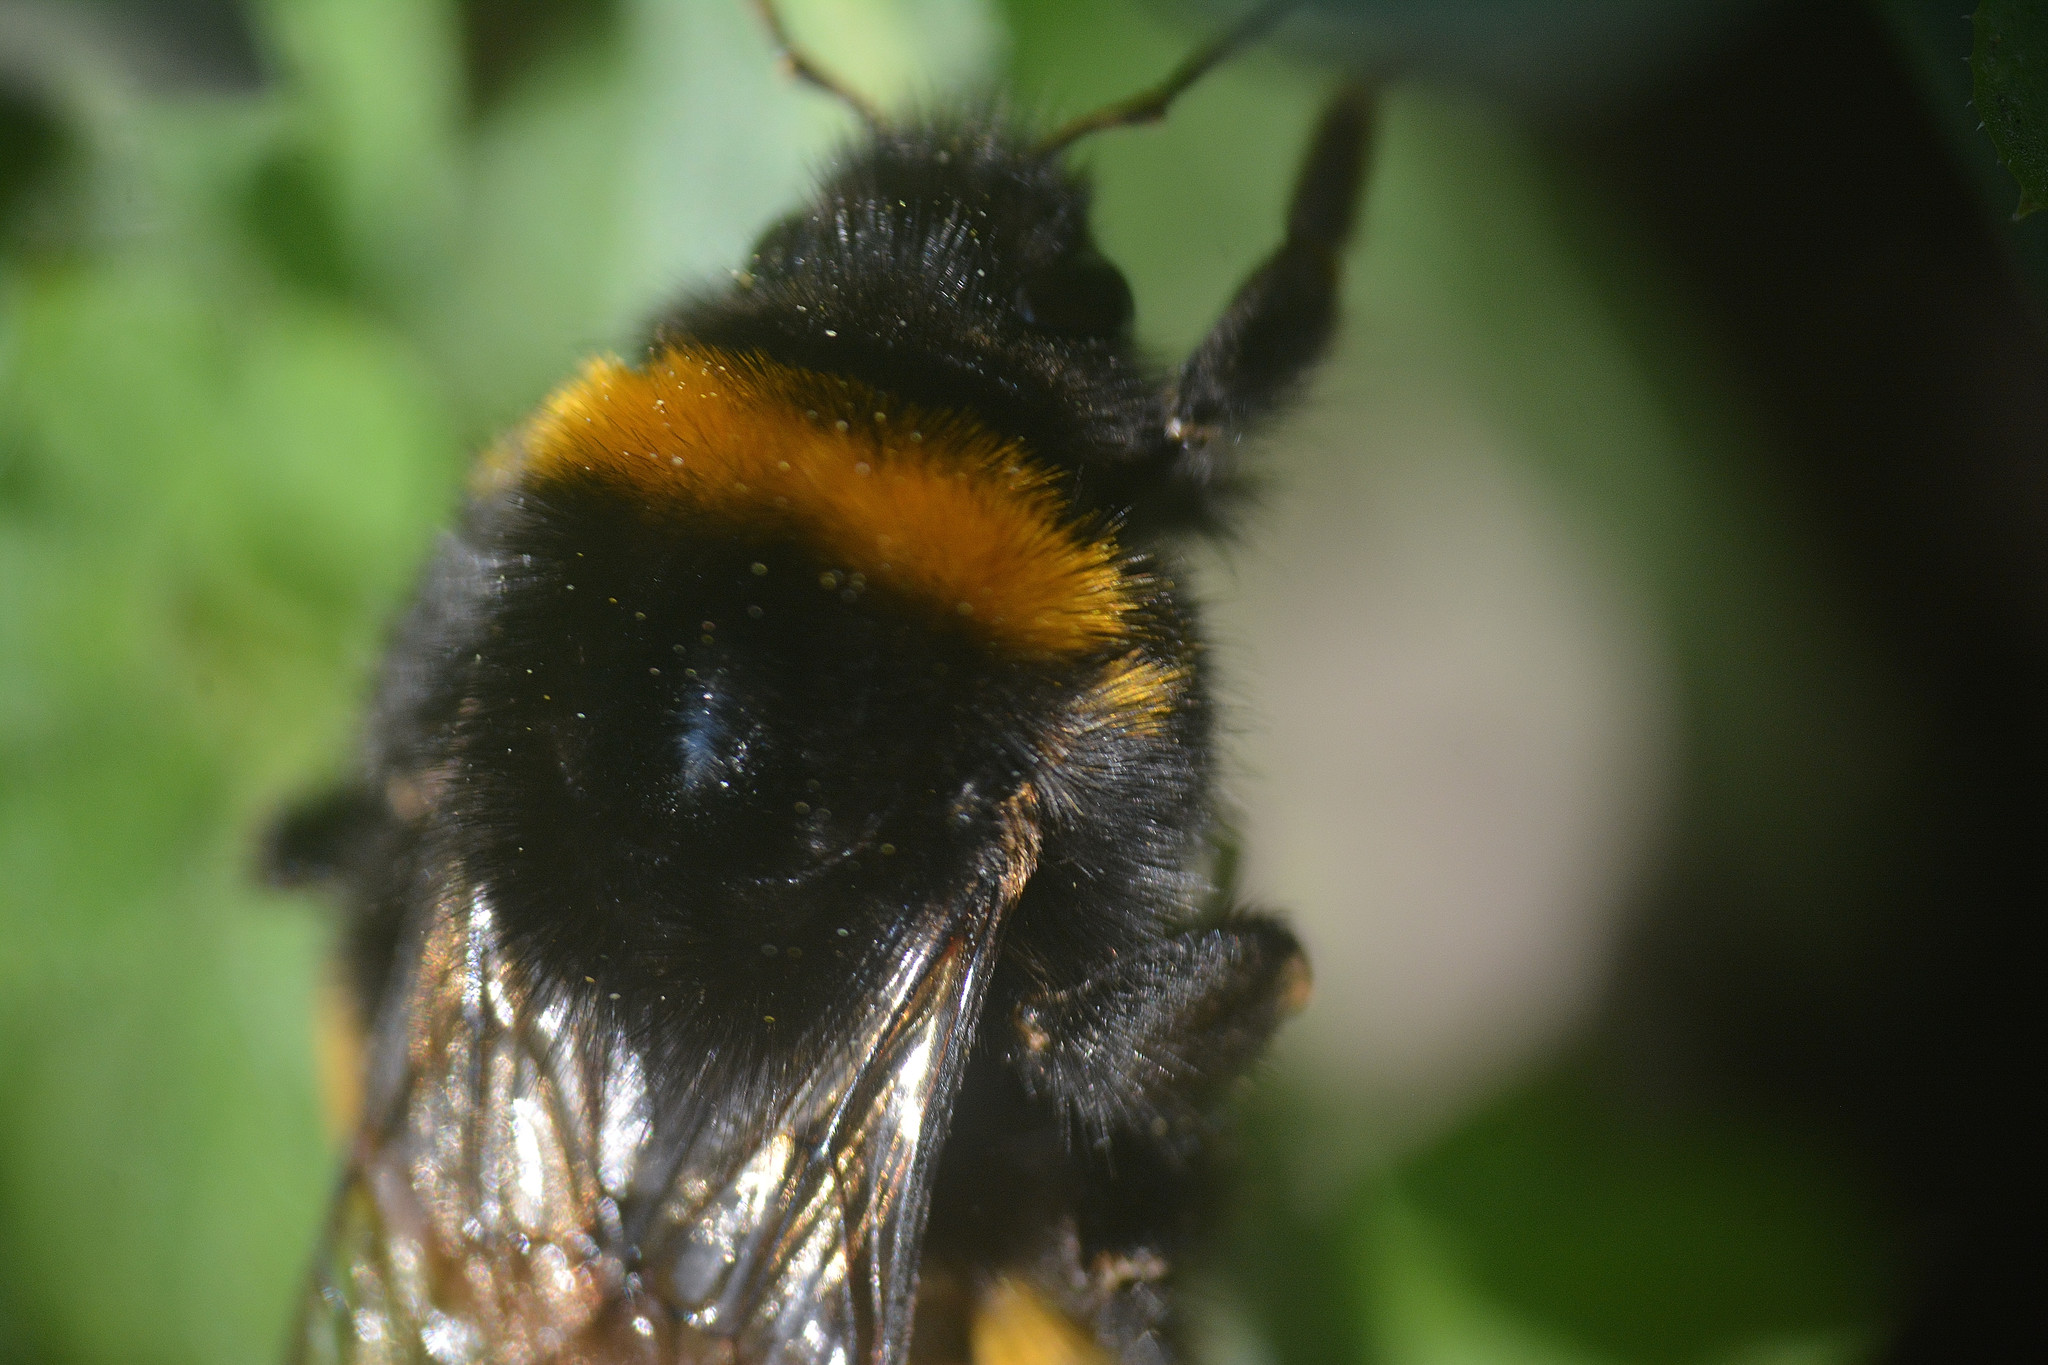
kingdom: Animalia
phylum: Arthropoda
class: Insecta
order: Hymenoptera
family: Apidae
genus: Bombus
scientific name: Bombus terrestris
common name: Buff-tailed bumblebee
